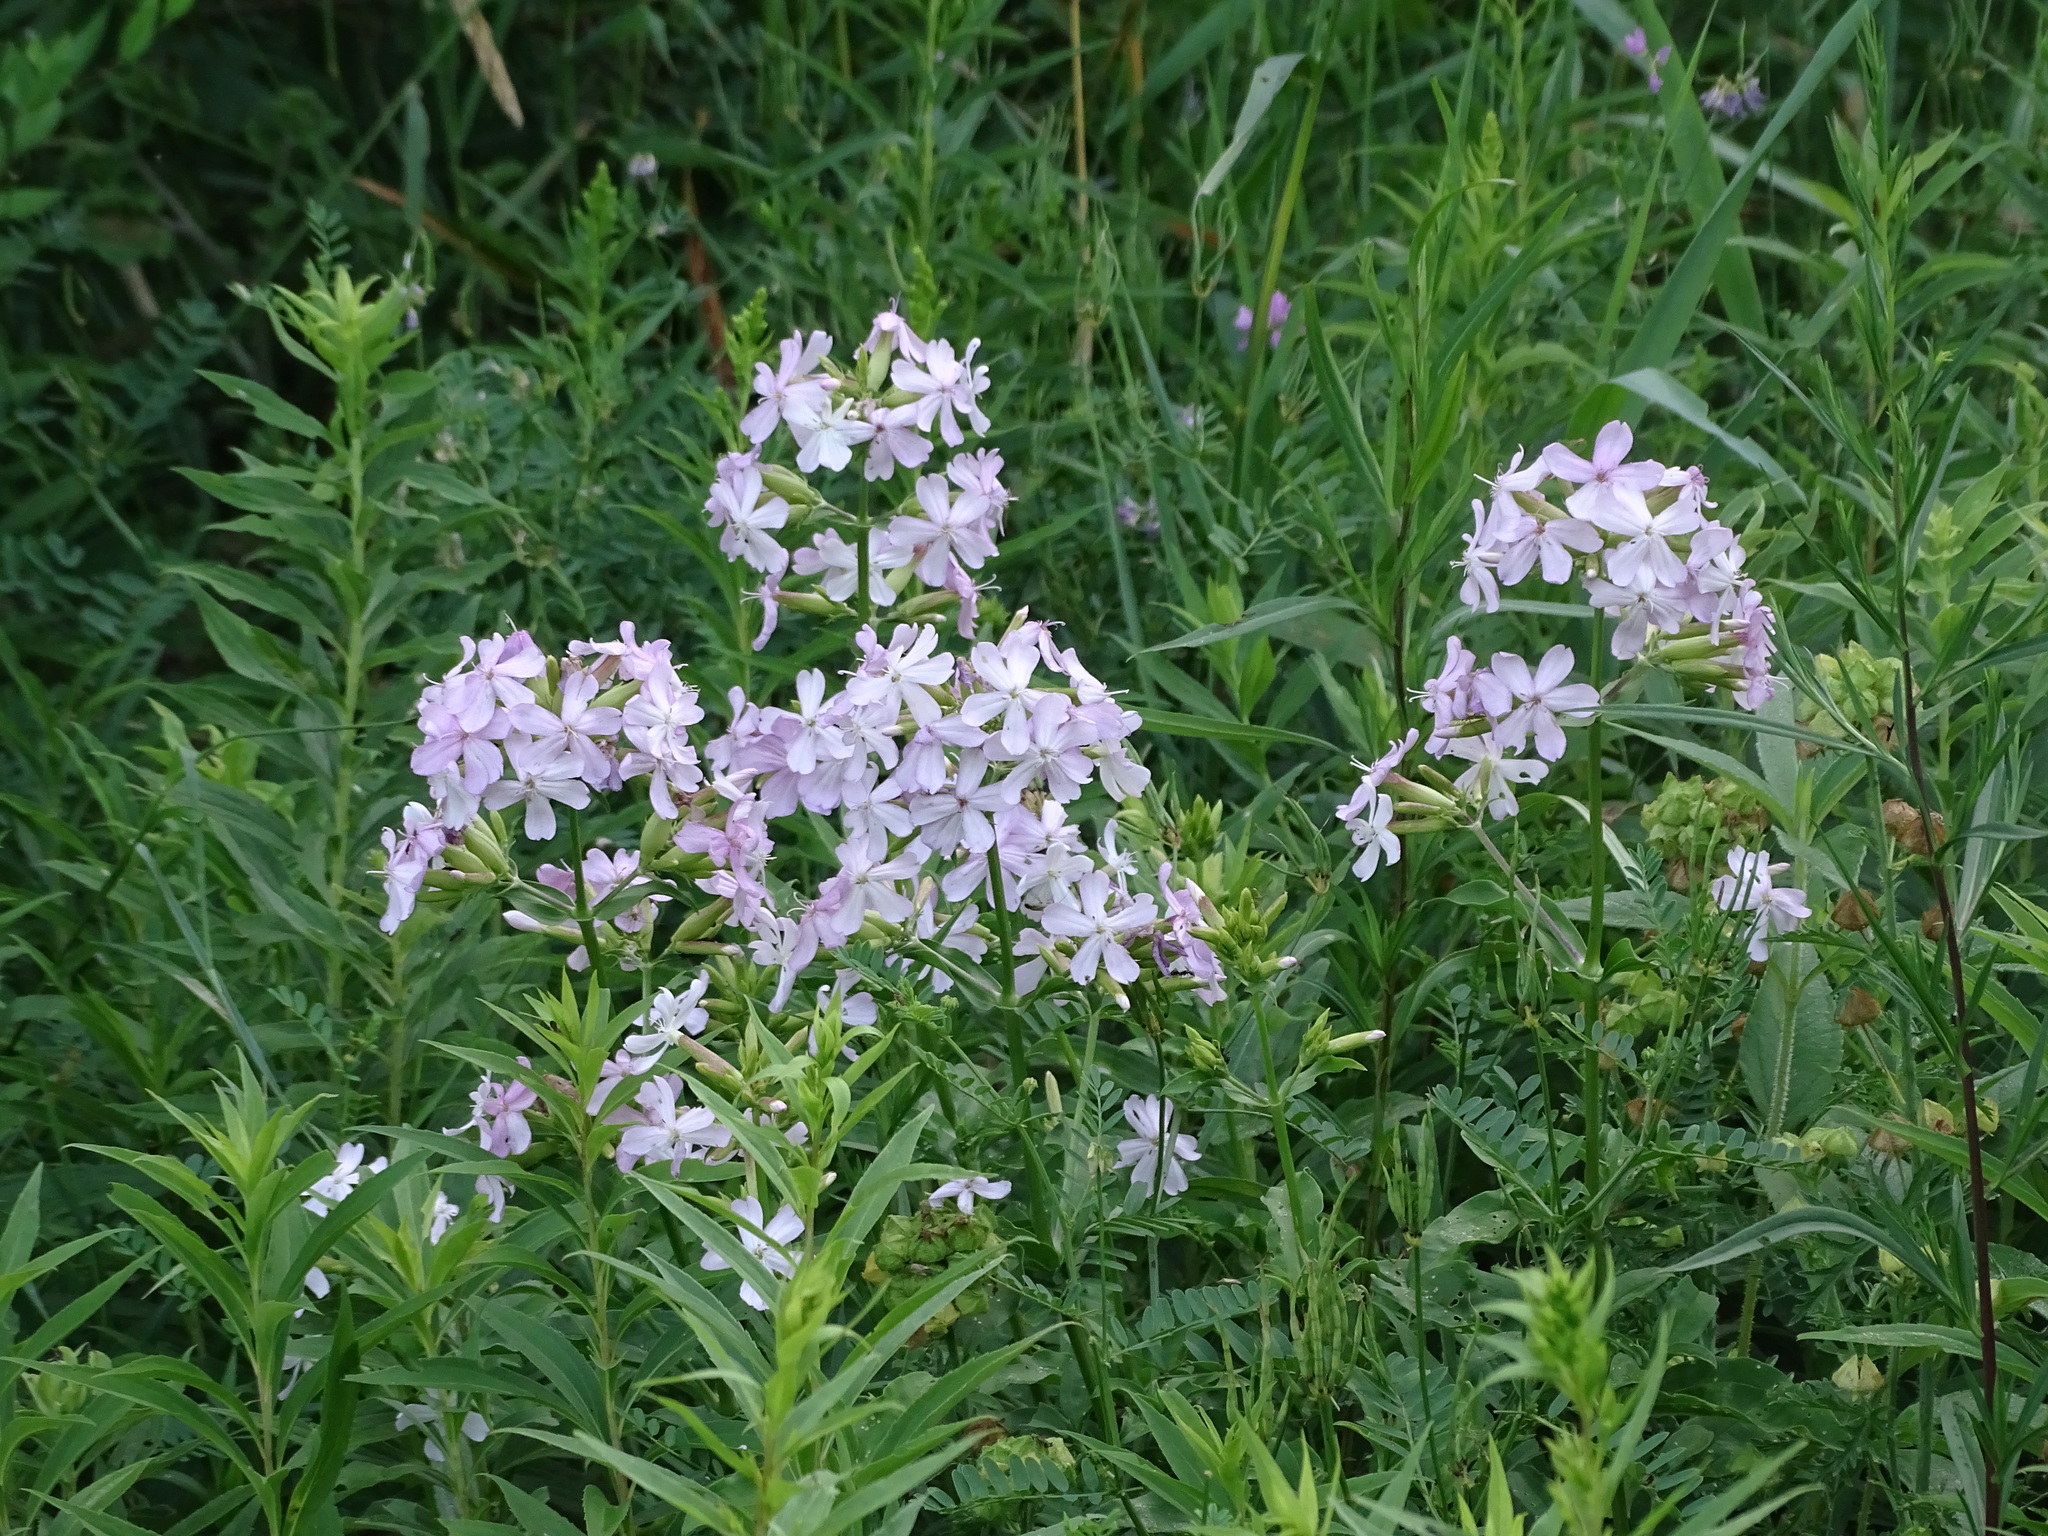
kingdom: Plantae
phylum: Tracheophyta
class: Magnoliopsida
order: Caryophyllales
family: Caryophyllaceae
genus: Saponaria
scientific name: Saponaria officinalis
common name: Soapwort
